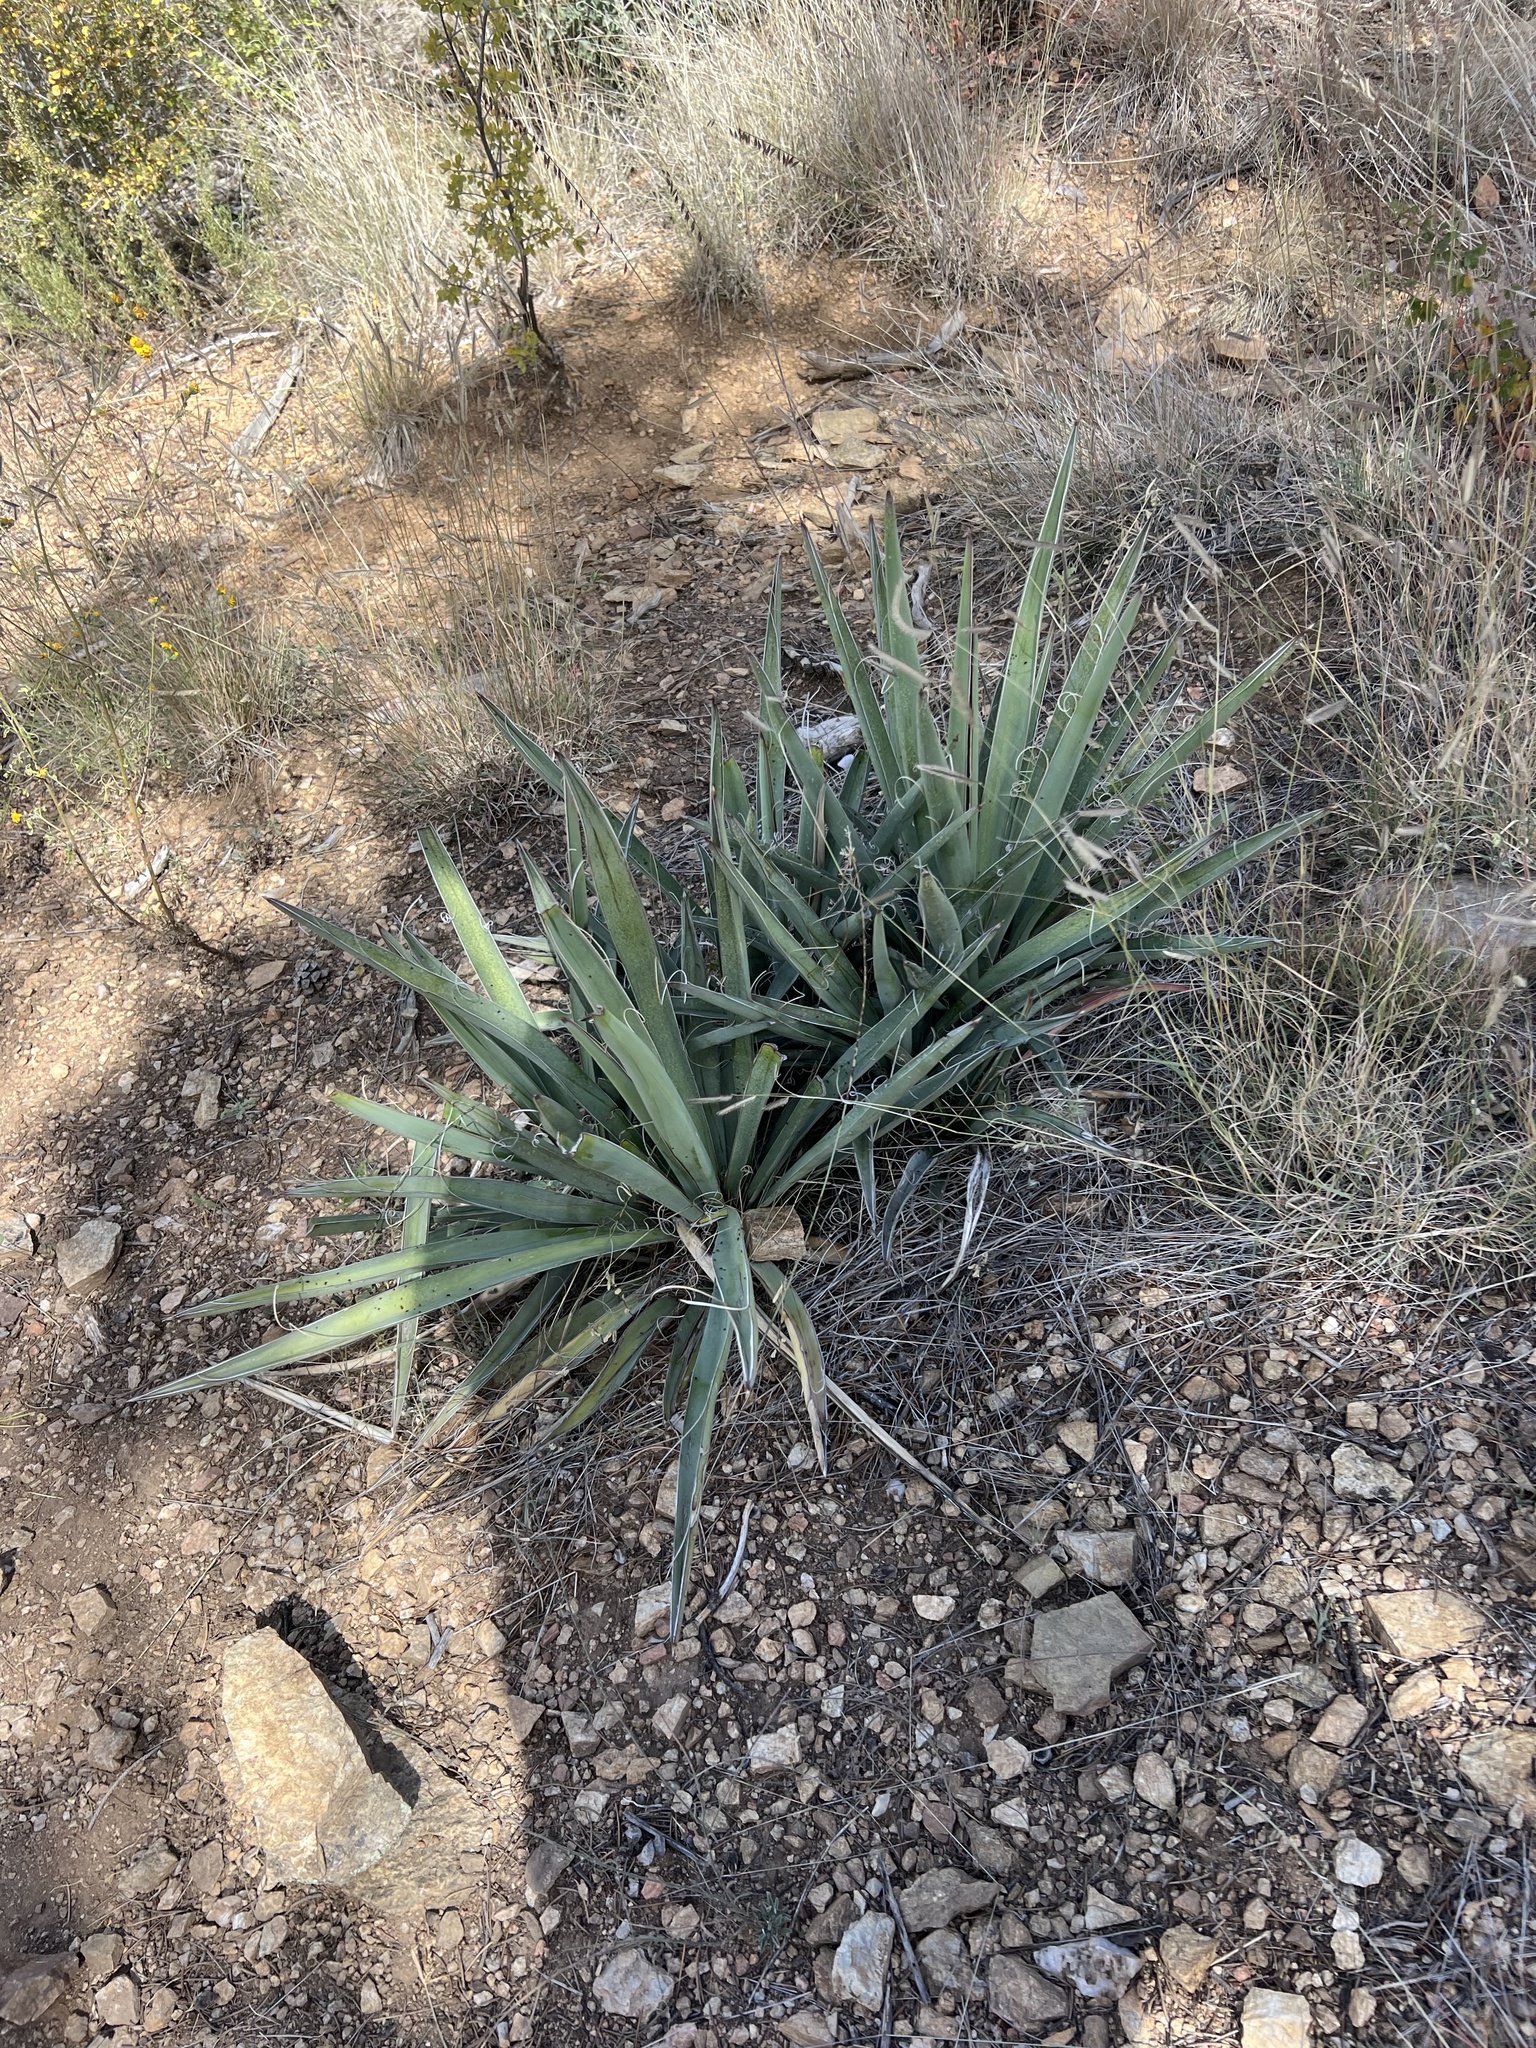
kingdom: Plantae
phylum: Tracheophyta
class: Liliopsida
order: Asparagales
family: Asparagaceae
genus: Yucca
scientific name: Yucca baccata
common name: Banana yucca
